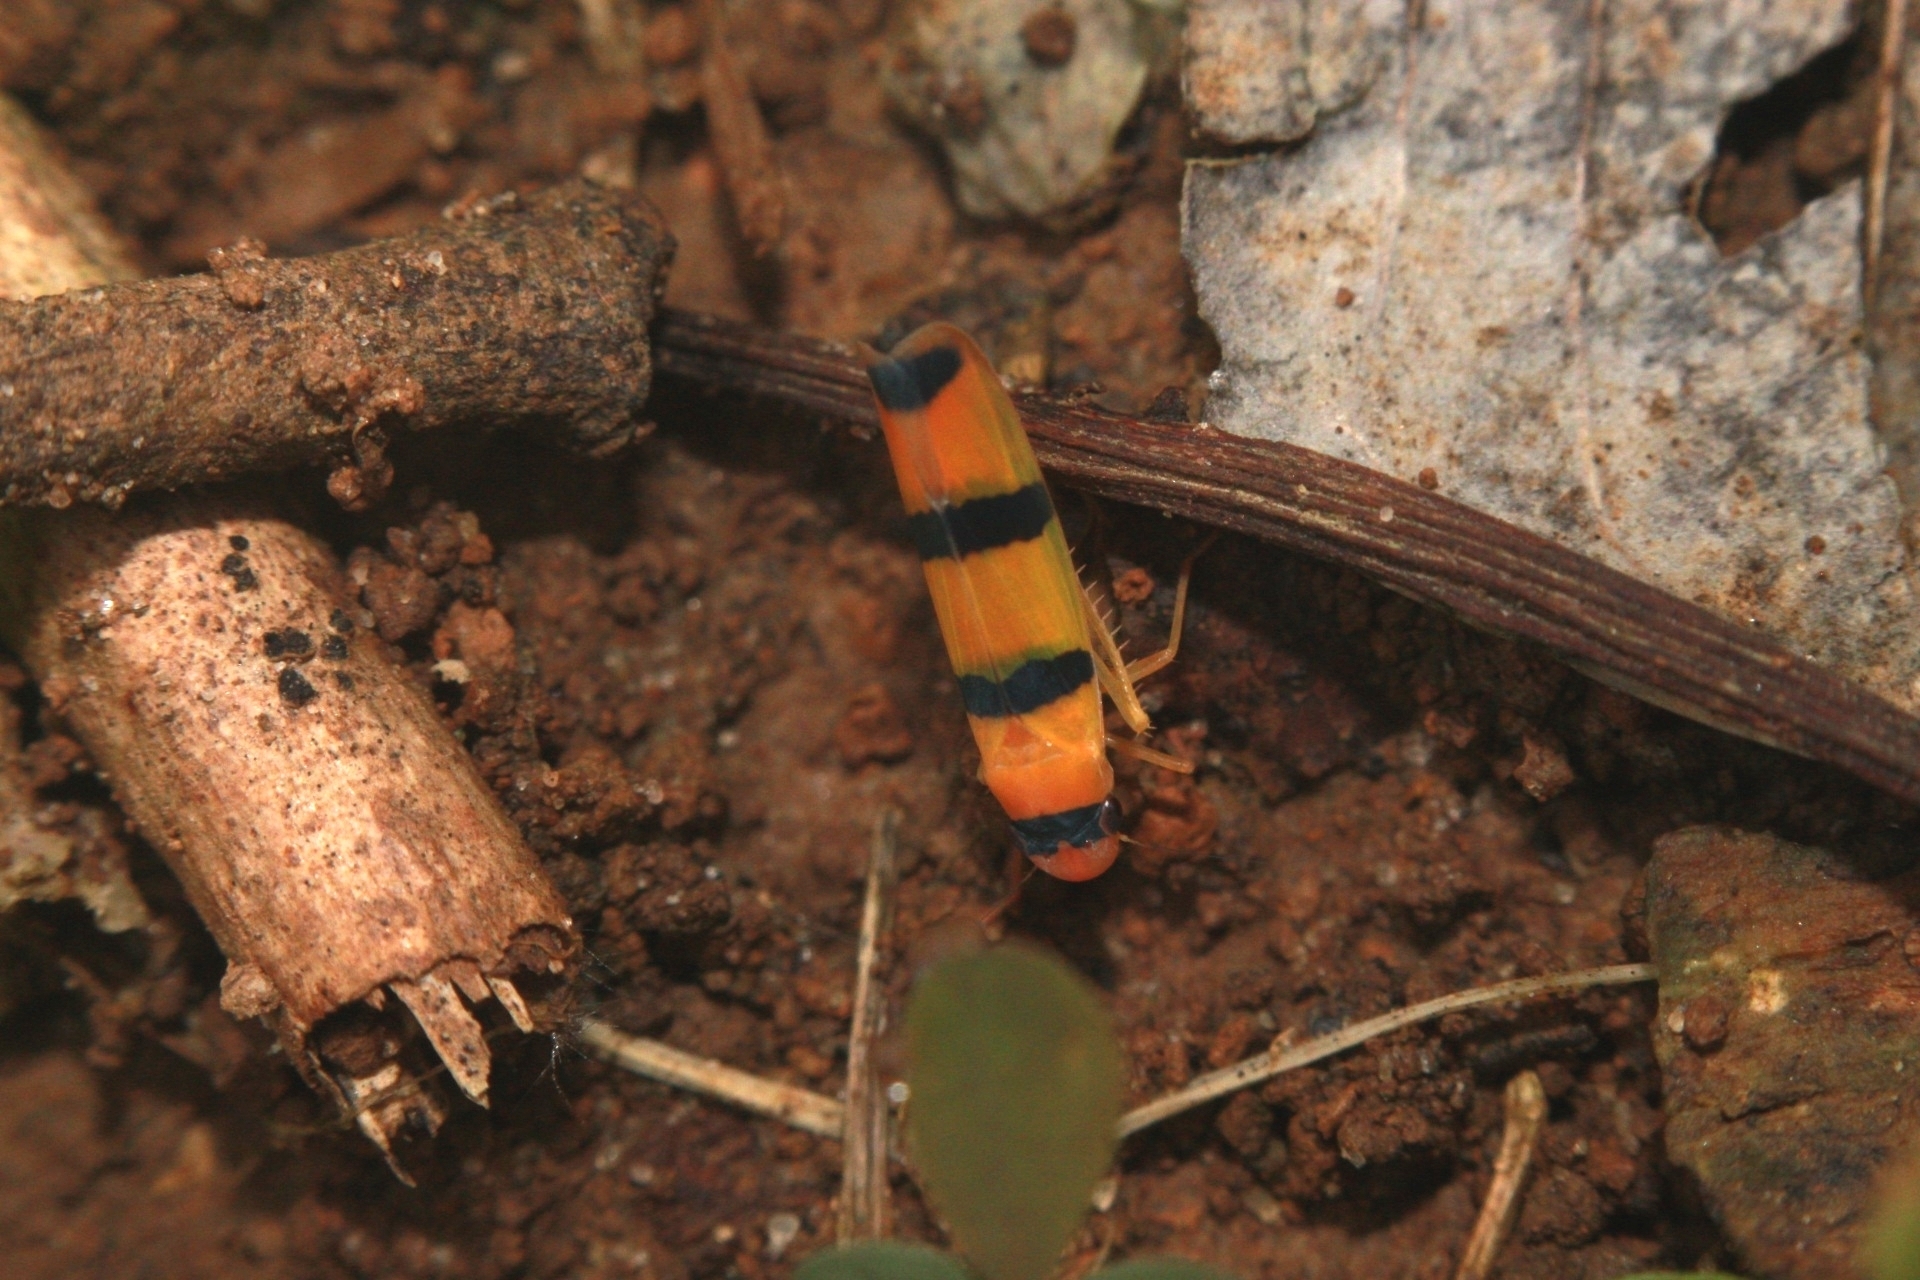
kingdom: Animalia
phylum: Arthropoda
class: Insecta
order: Hemiptera
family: Cicadellidae
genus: Cardioscarta
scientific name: Cardioscarta quadrifasciata
